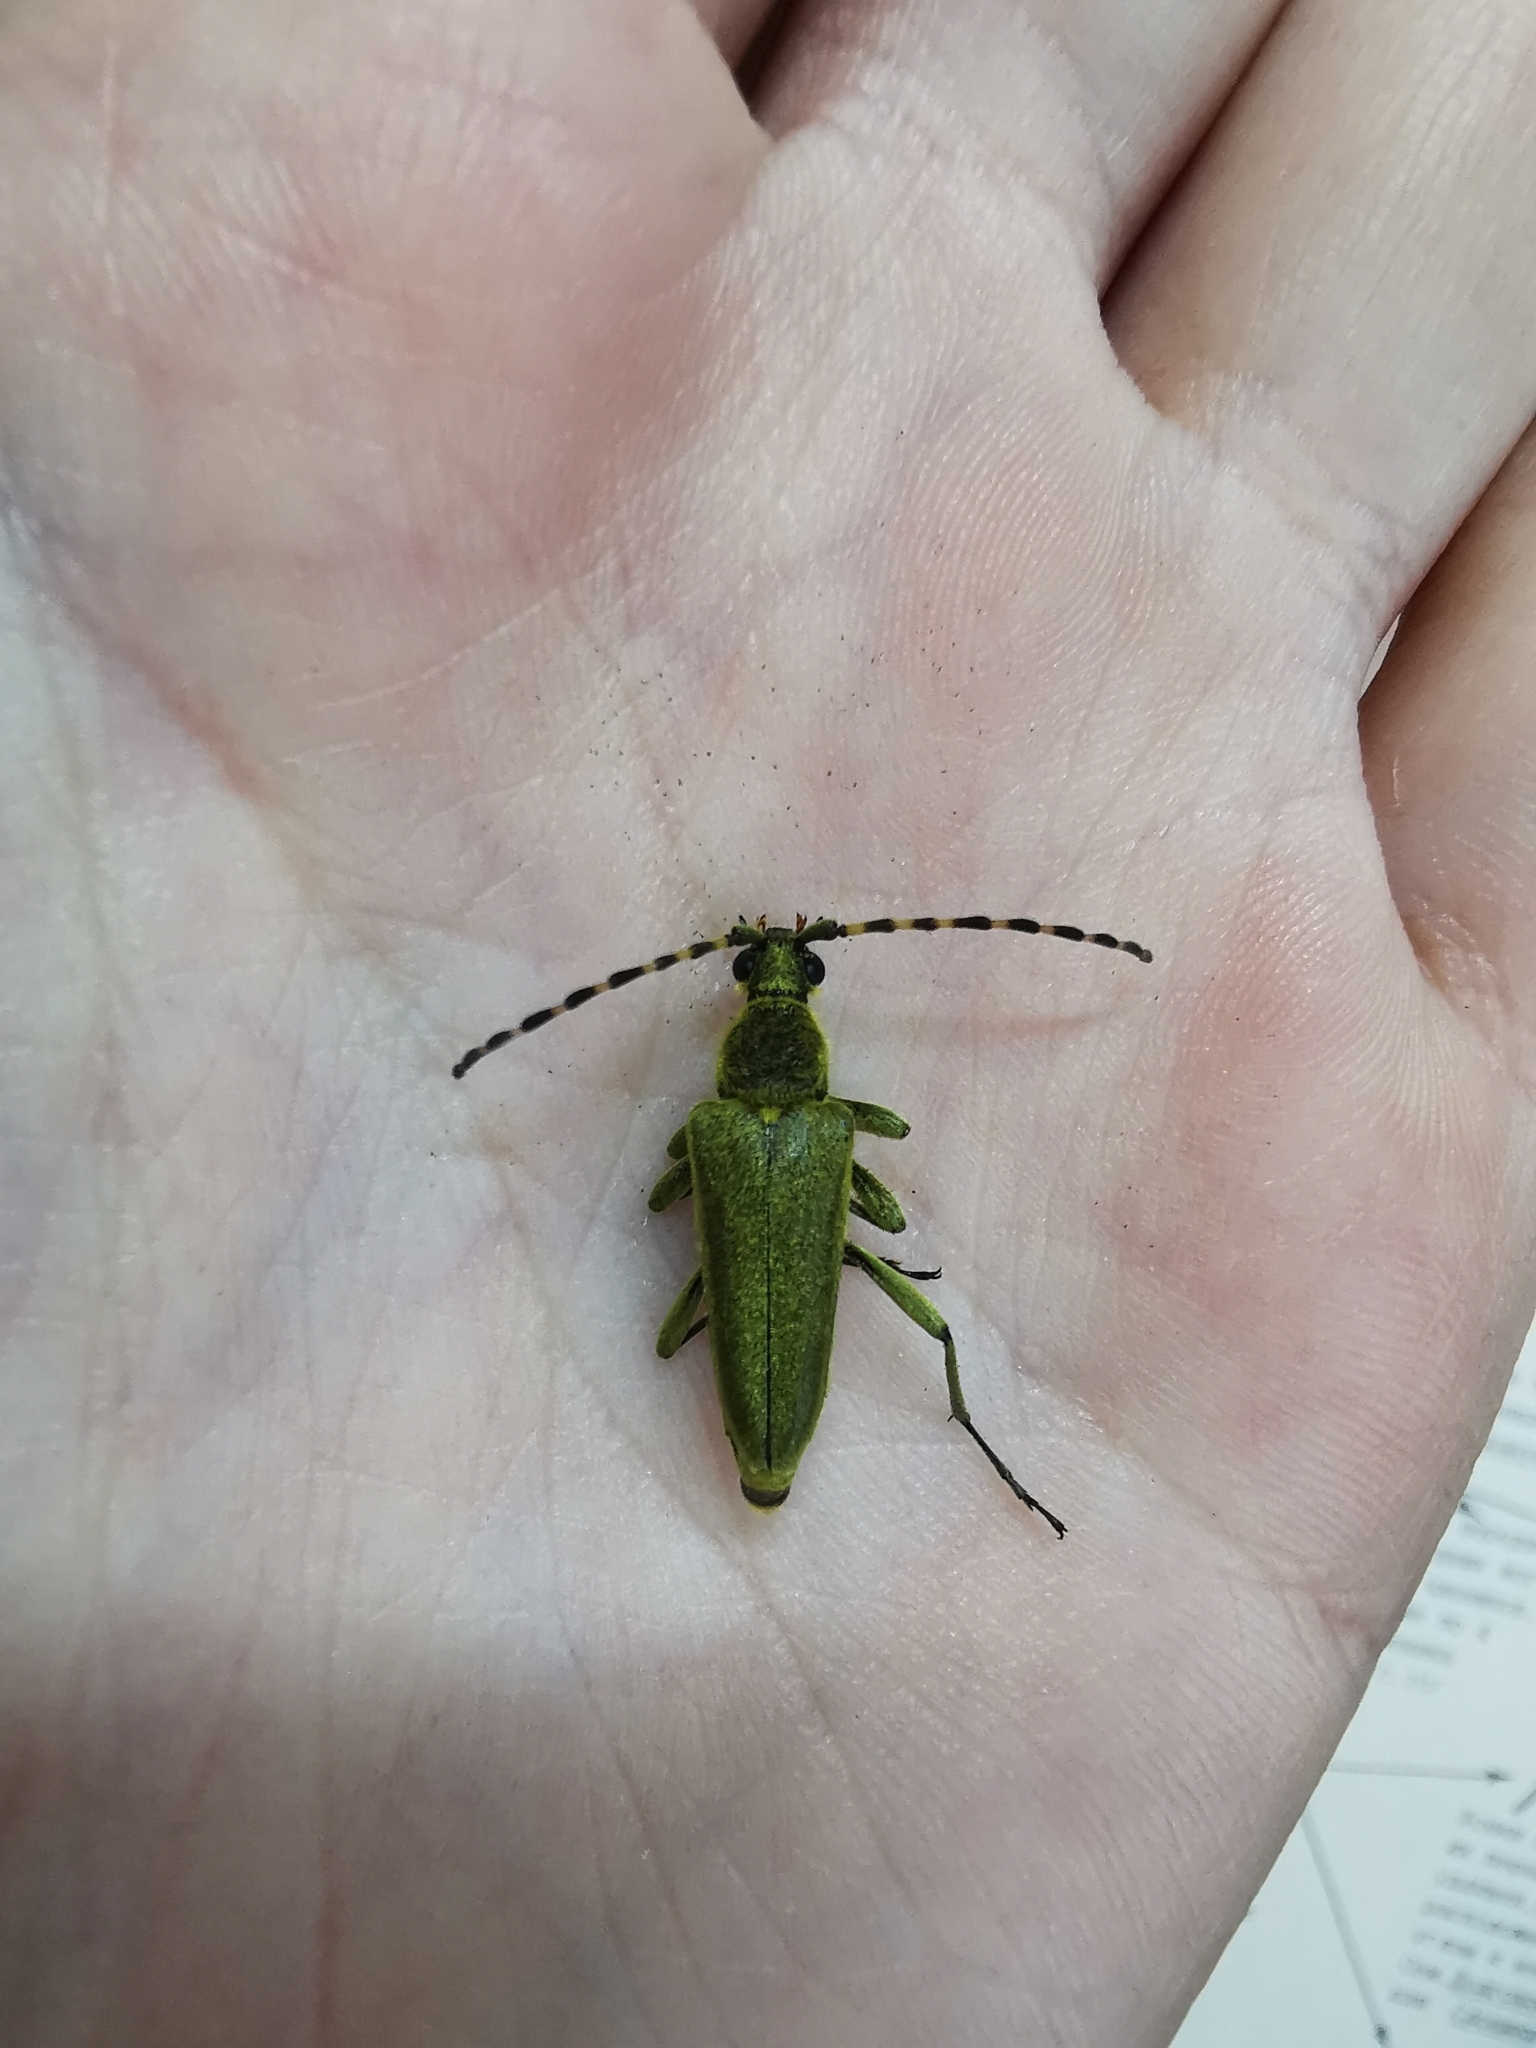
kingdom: Animalia
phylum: Arthropoda
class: Insecta
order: Coleoptera
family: Cerambycidae
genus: Lepturobosca
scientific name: Lepturobosca virens
